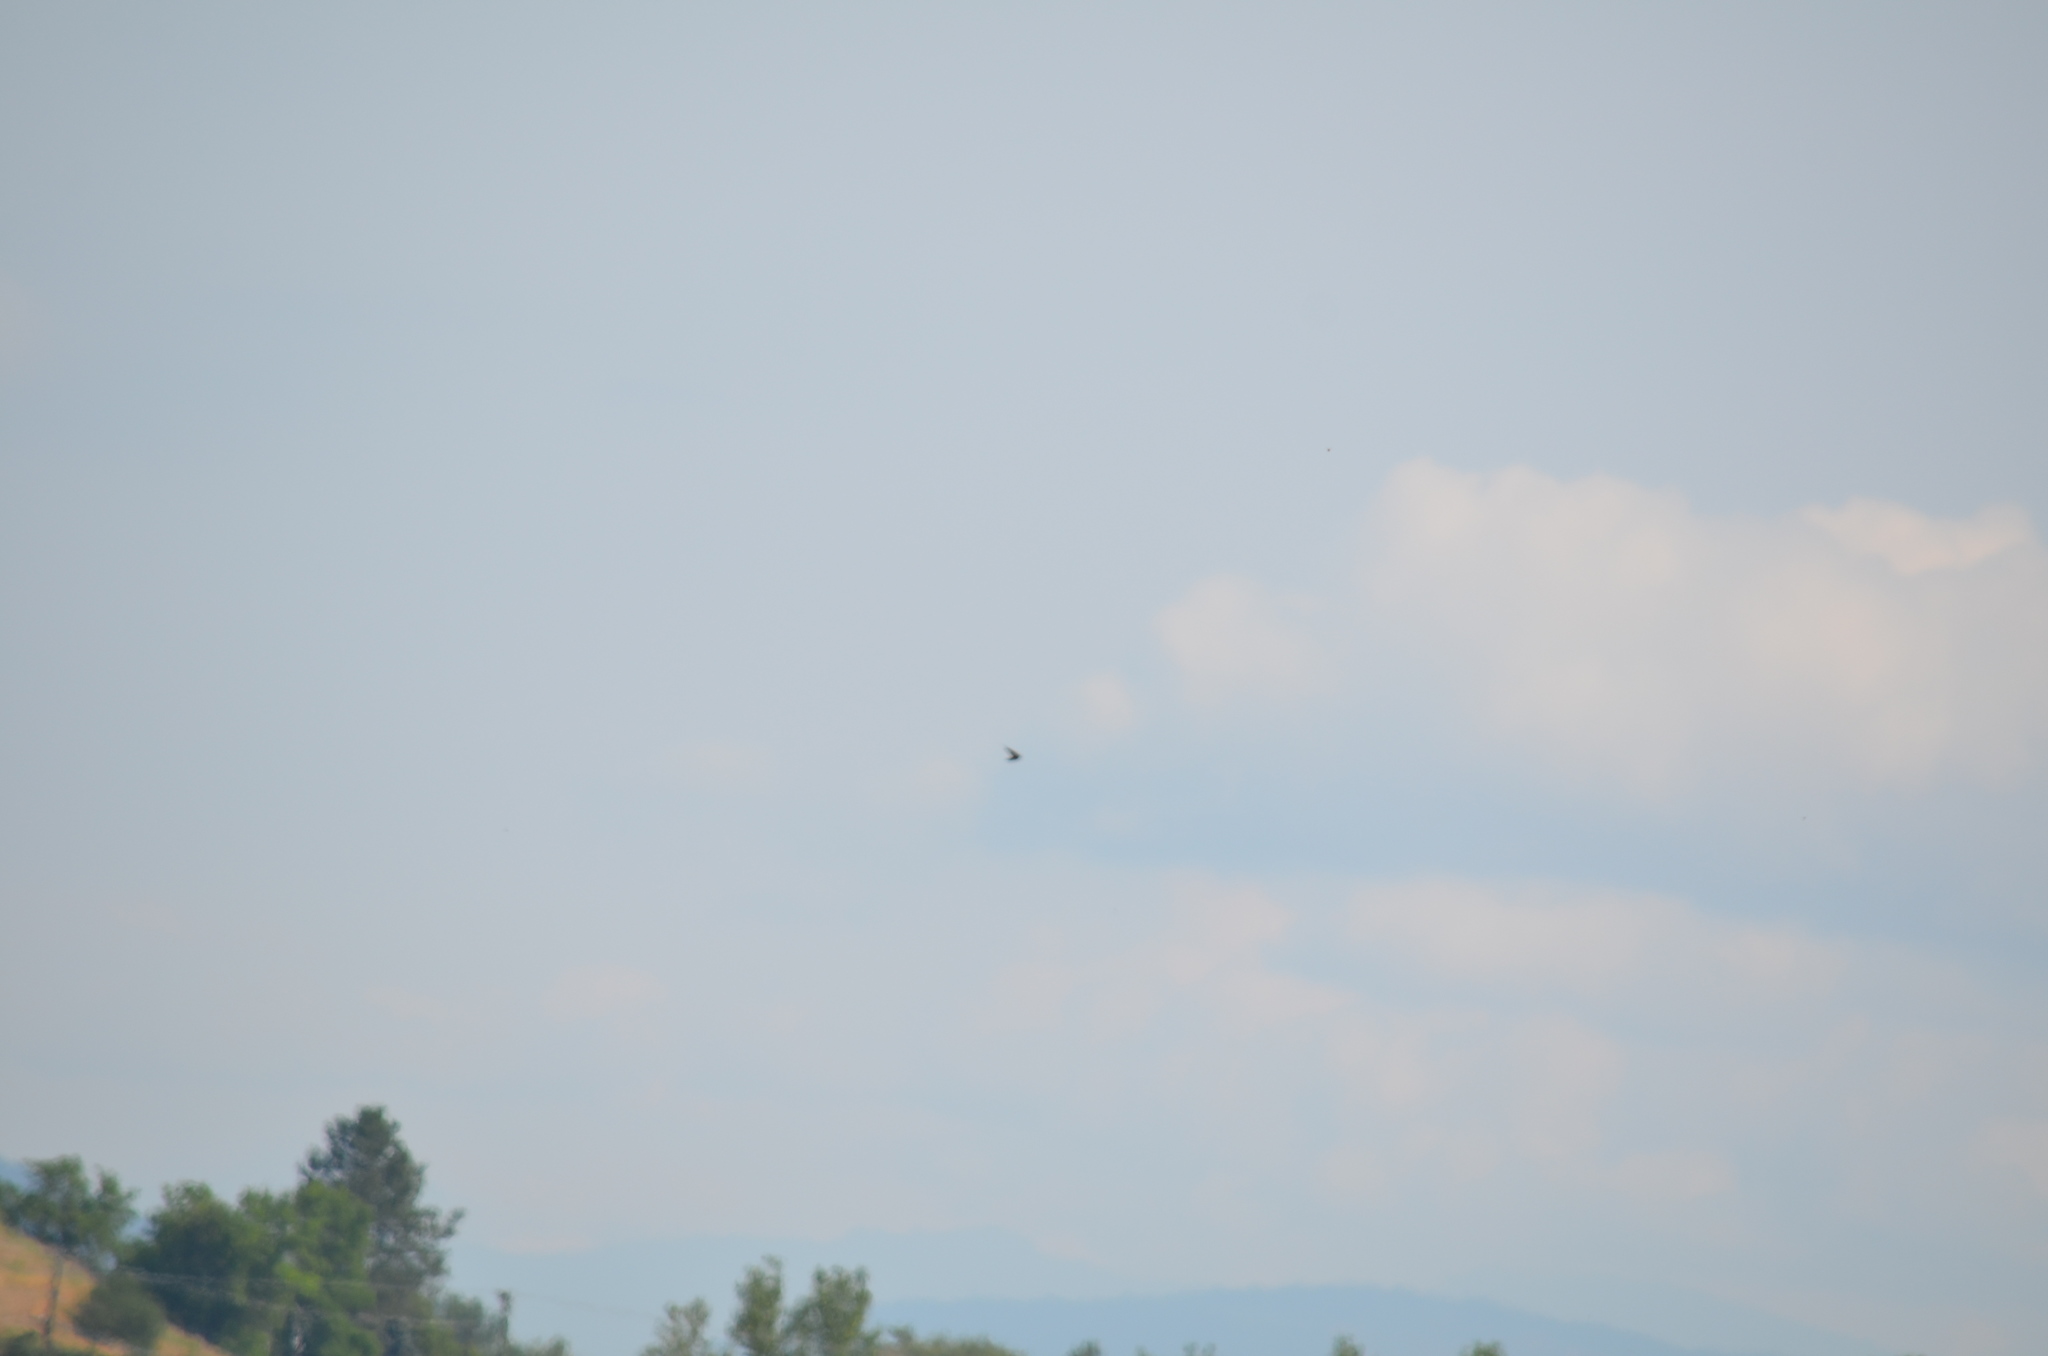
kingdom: Animalia
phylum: Chordata
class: Aves
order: Passeriformes
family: Hirundinidae
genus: Hirundo
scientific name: Hirundo rustica
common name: Barn swallow
